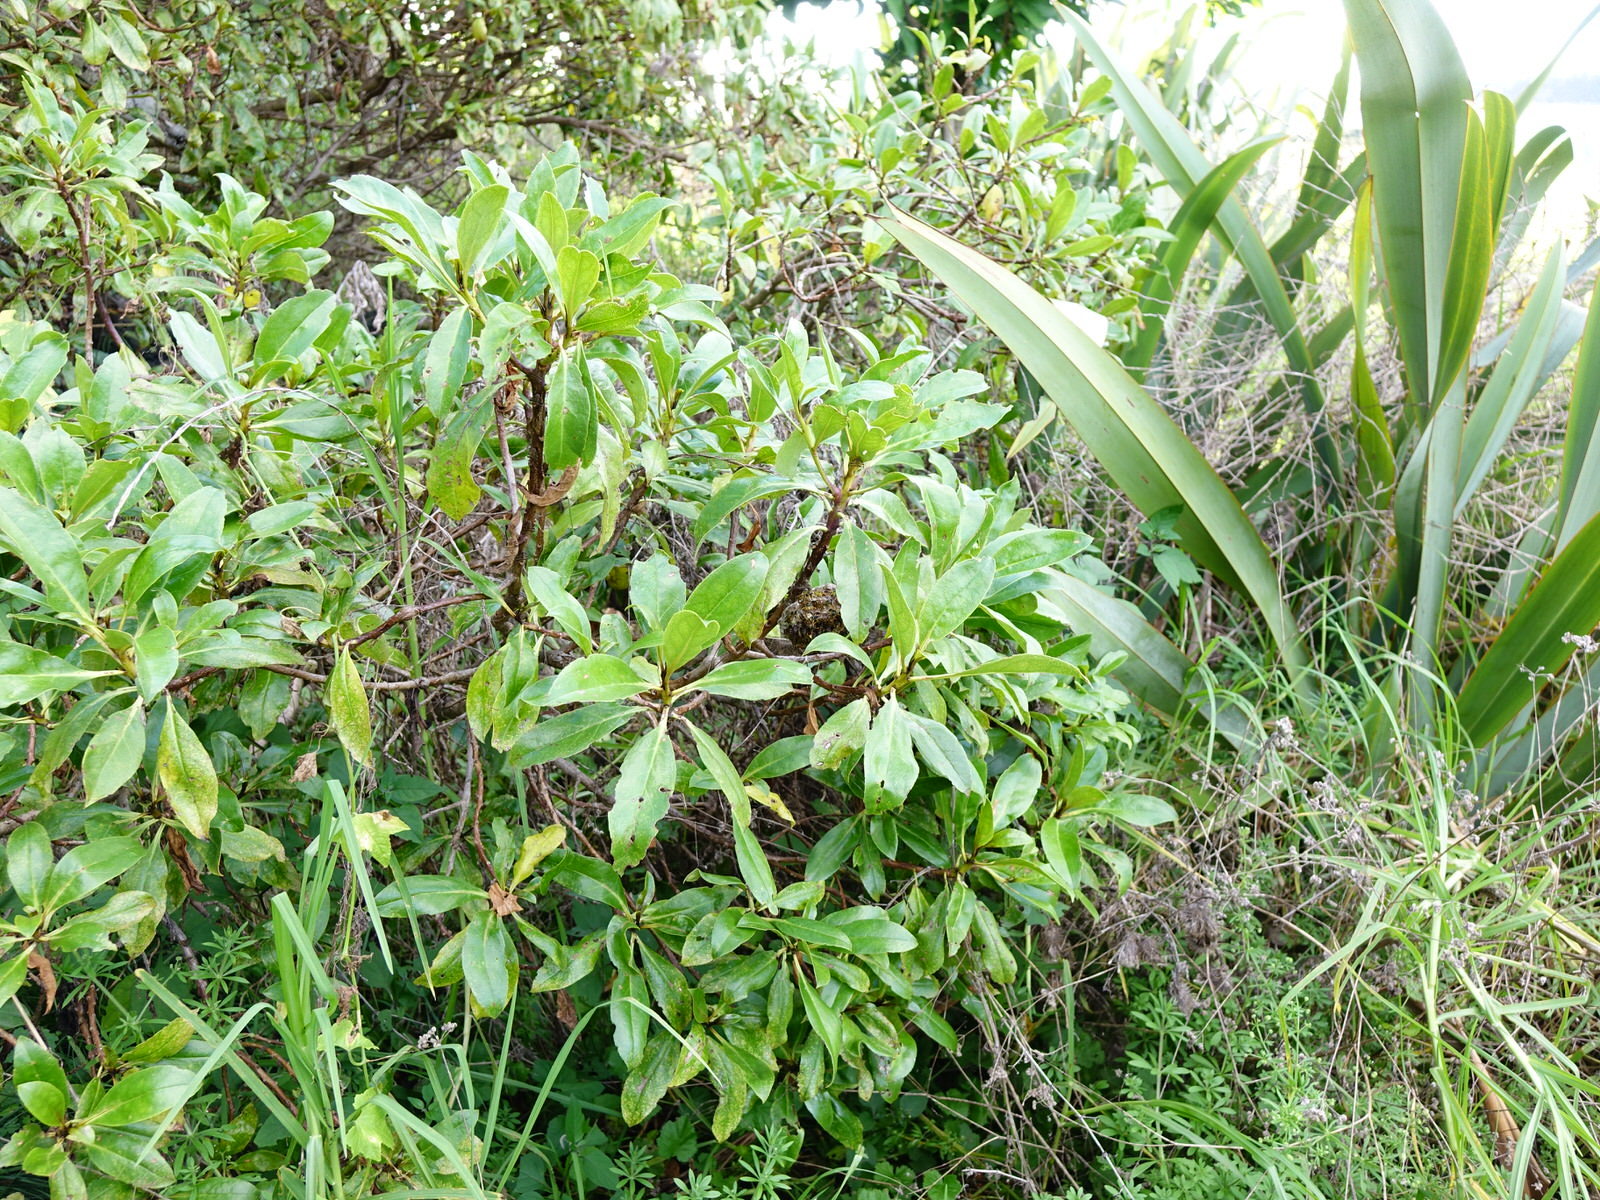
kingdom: Animalia
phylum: Arthropoda
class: Insecta
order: Hymenoptera
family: Eumenidae
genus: Polistes
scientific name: Polistes chinensis
